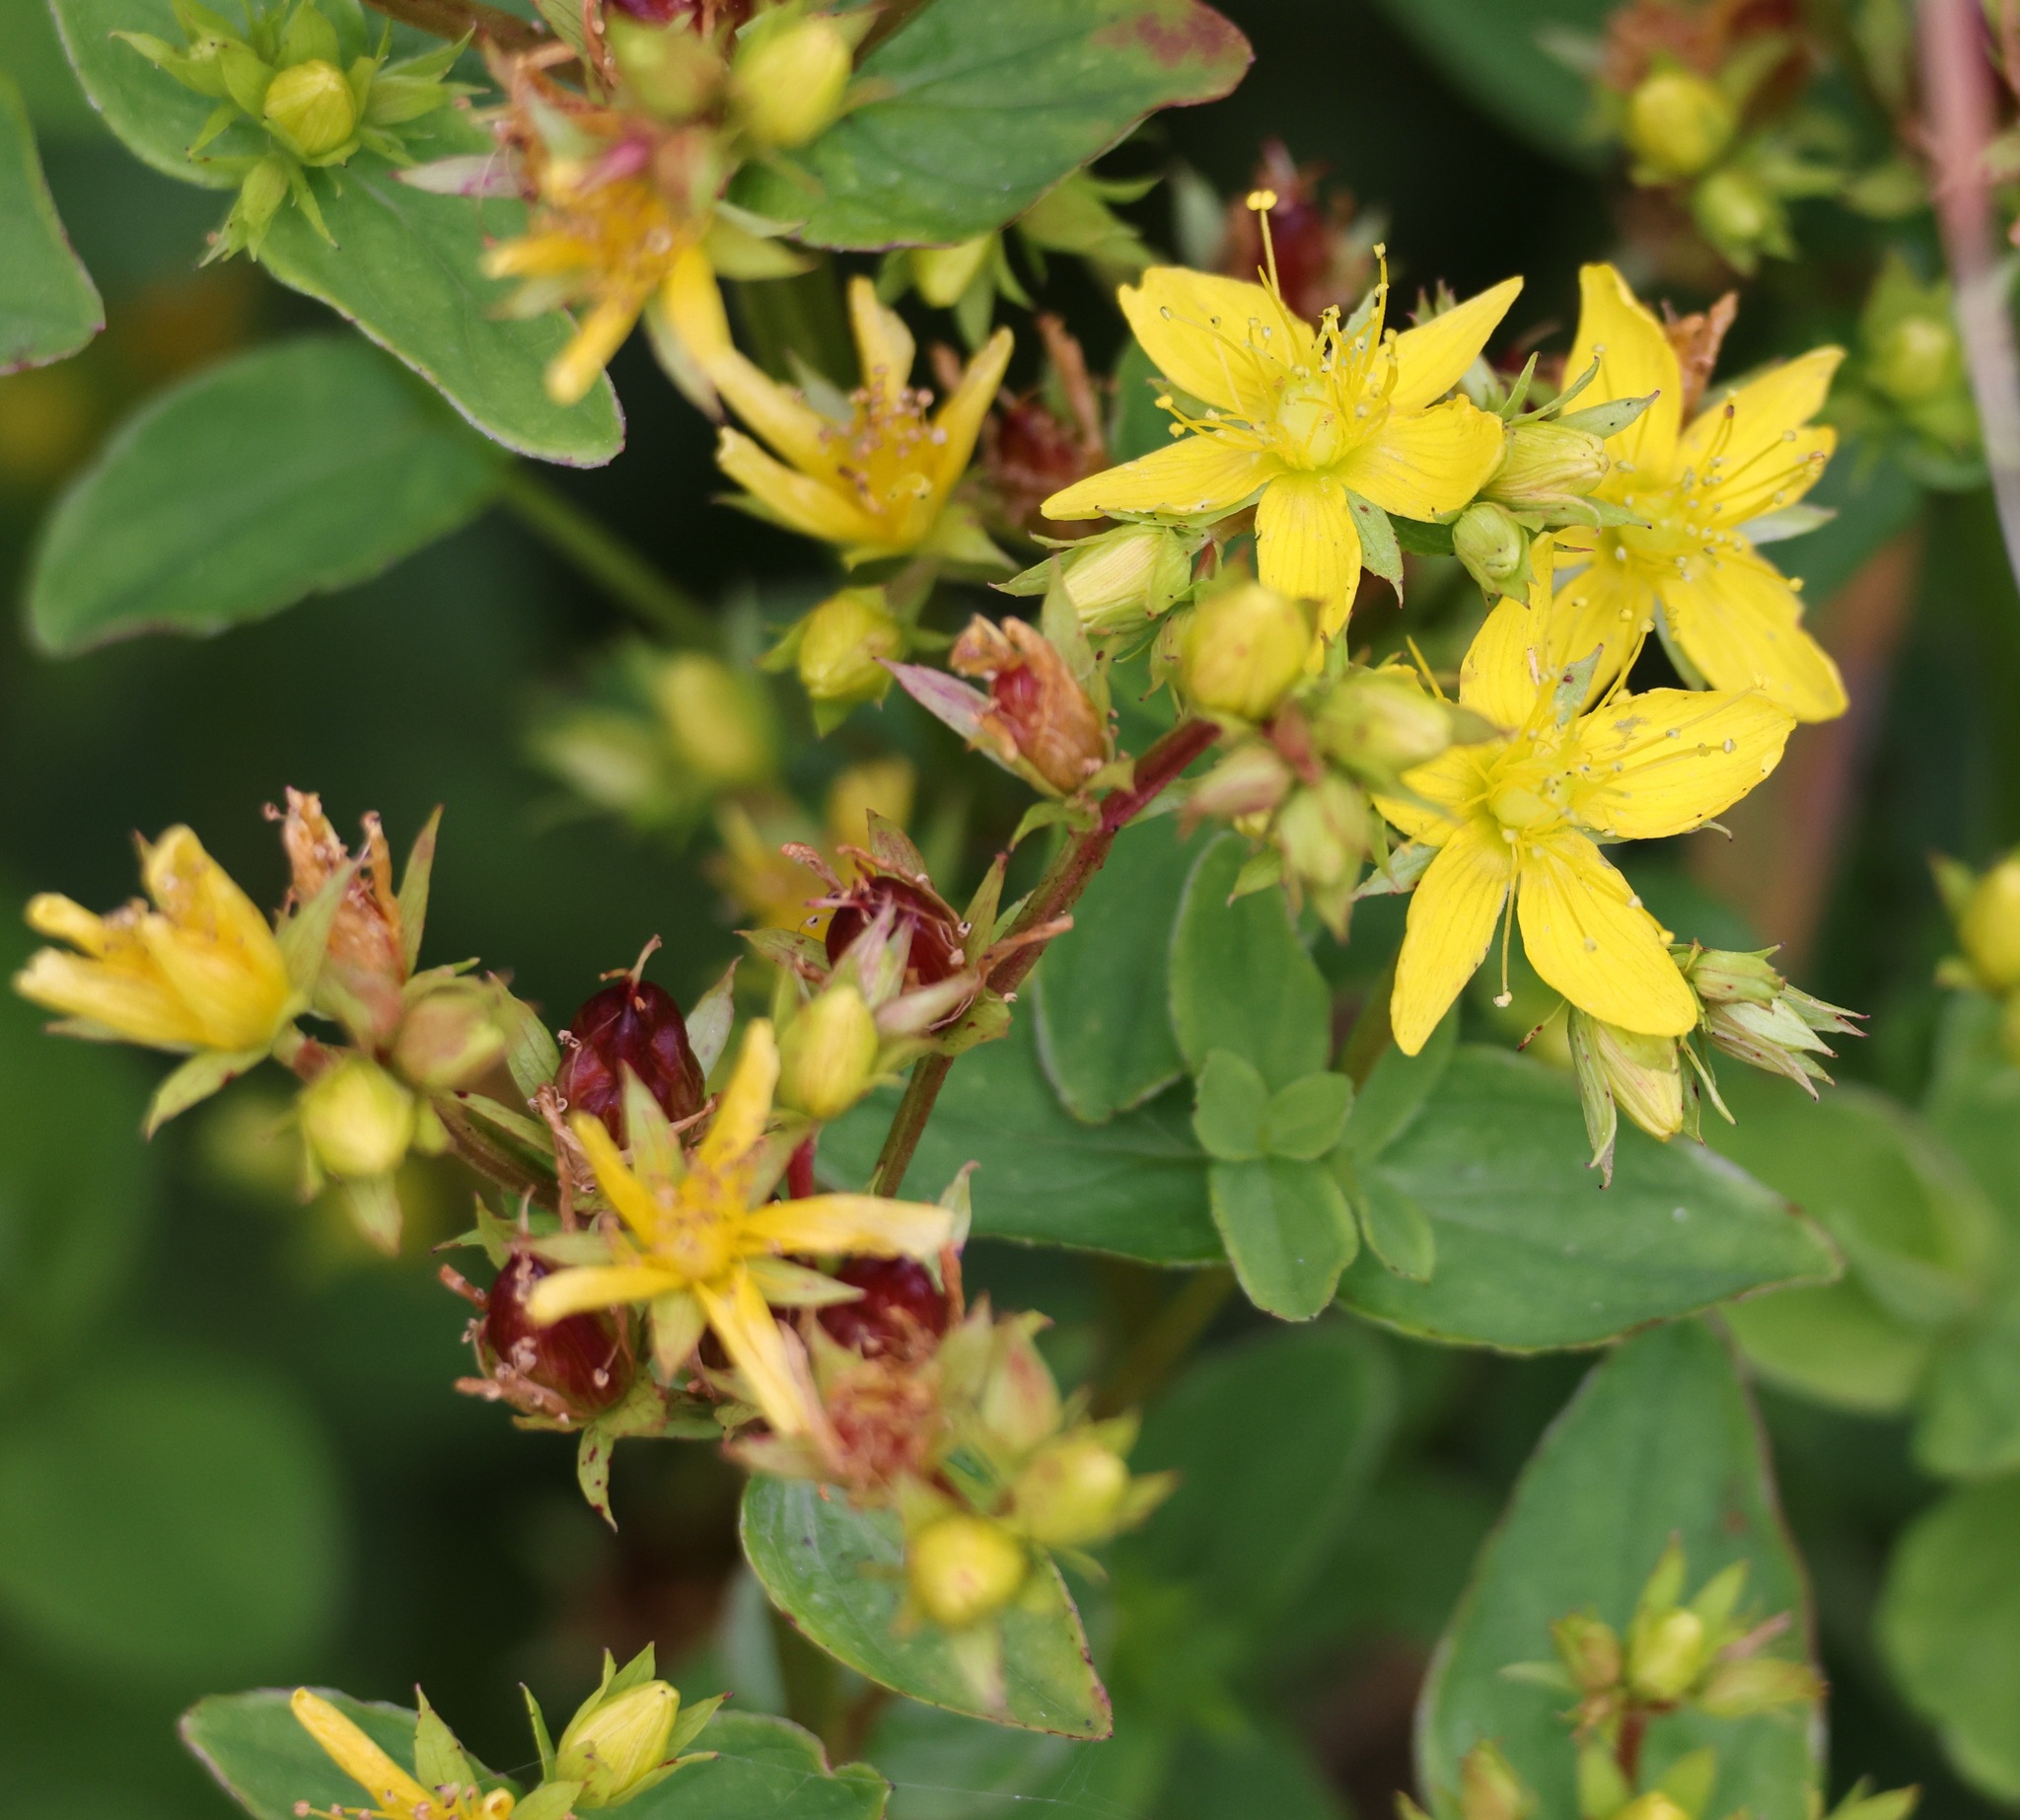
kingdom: Plantae
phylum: Tracheophyta
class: Magnoliopsida
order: Malpighiales
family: Hypericaceae
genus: Hypericum
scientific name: Hypericum tetrapterum
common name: Square-stalked st. john's-wort
